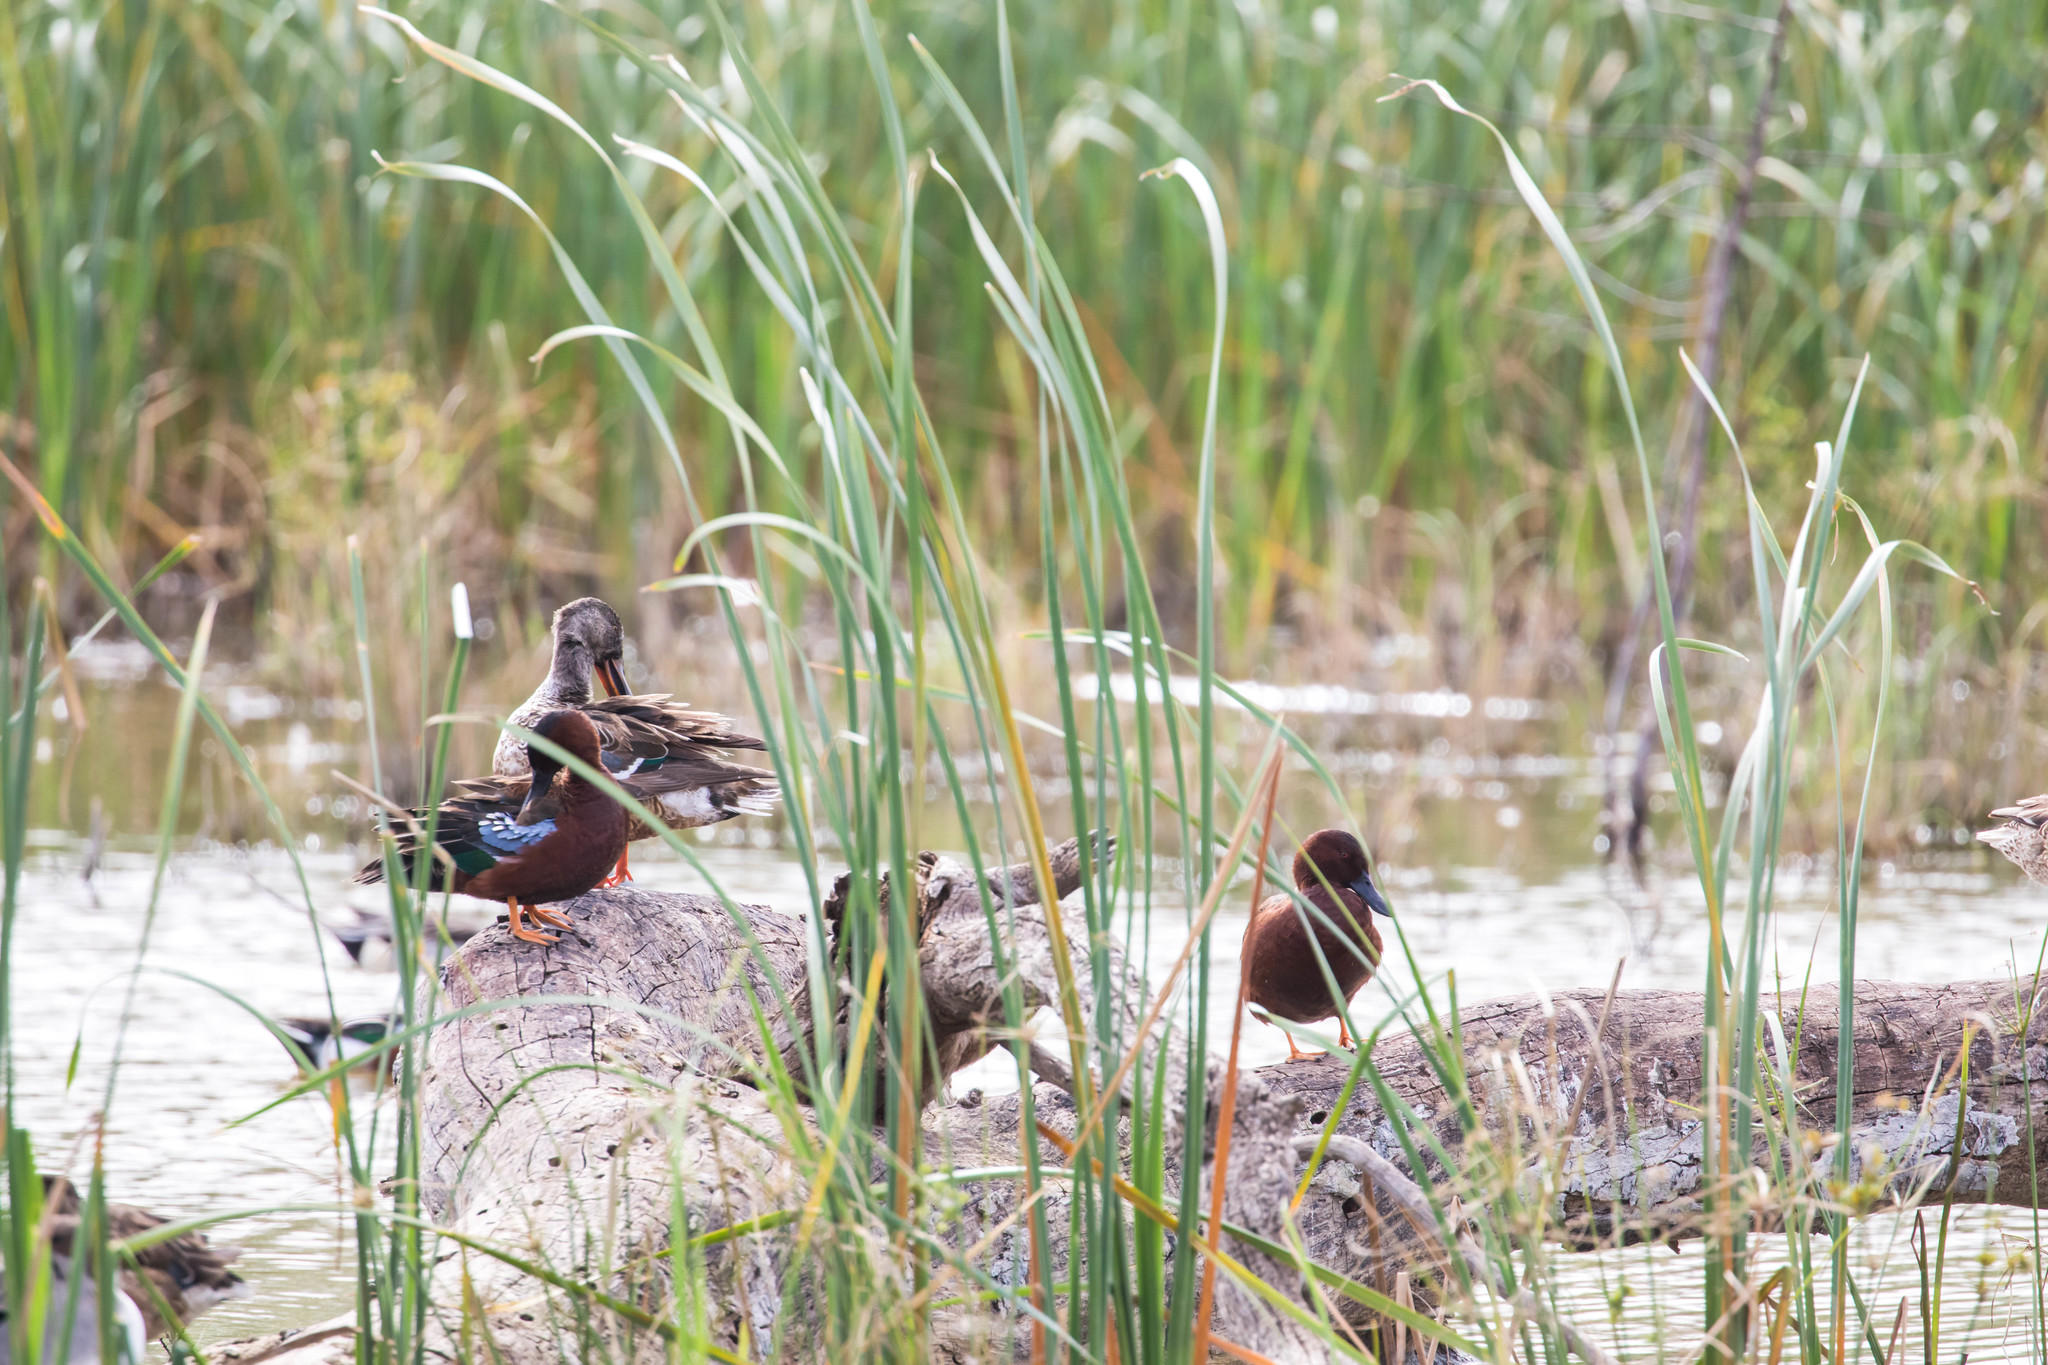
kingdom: Animalia
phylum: Chordata
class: Aves
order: Anseriformes
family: Anatidae
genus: Spatula
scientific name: Spatula cyanoptera
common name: Cinnamon teal
